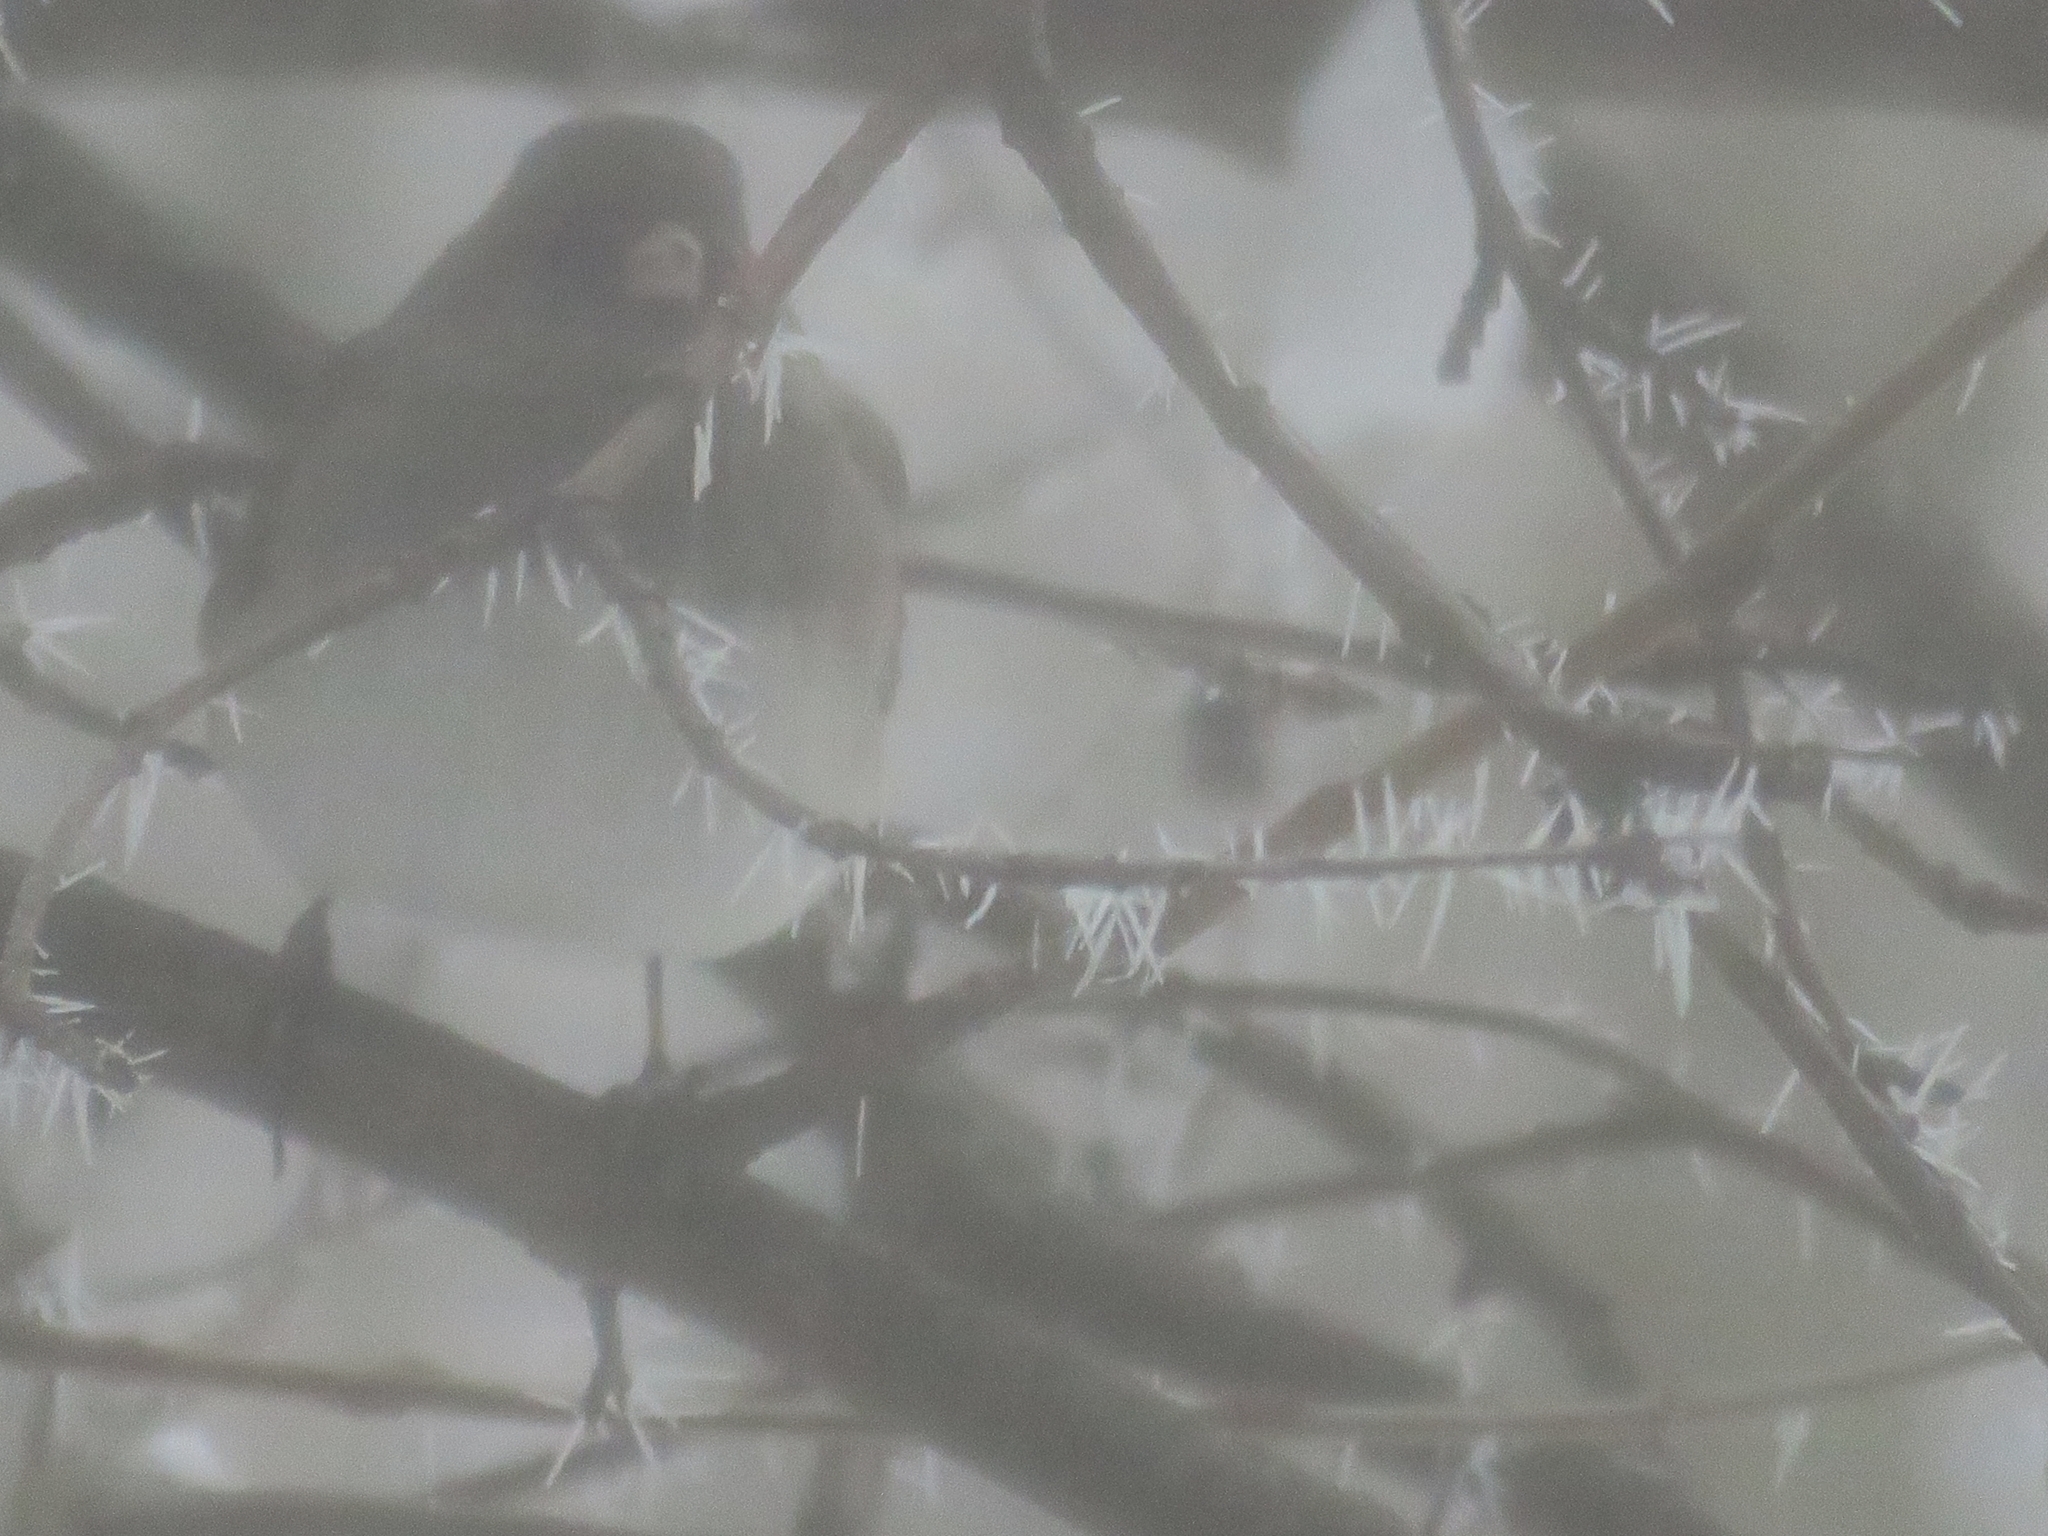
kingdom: Animalia
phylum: Chordata
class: Aves
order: Passeriformes
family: Passerellidae
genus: Junco
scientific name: Junco hyemalis
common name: Dark-eyed junco
